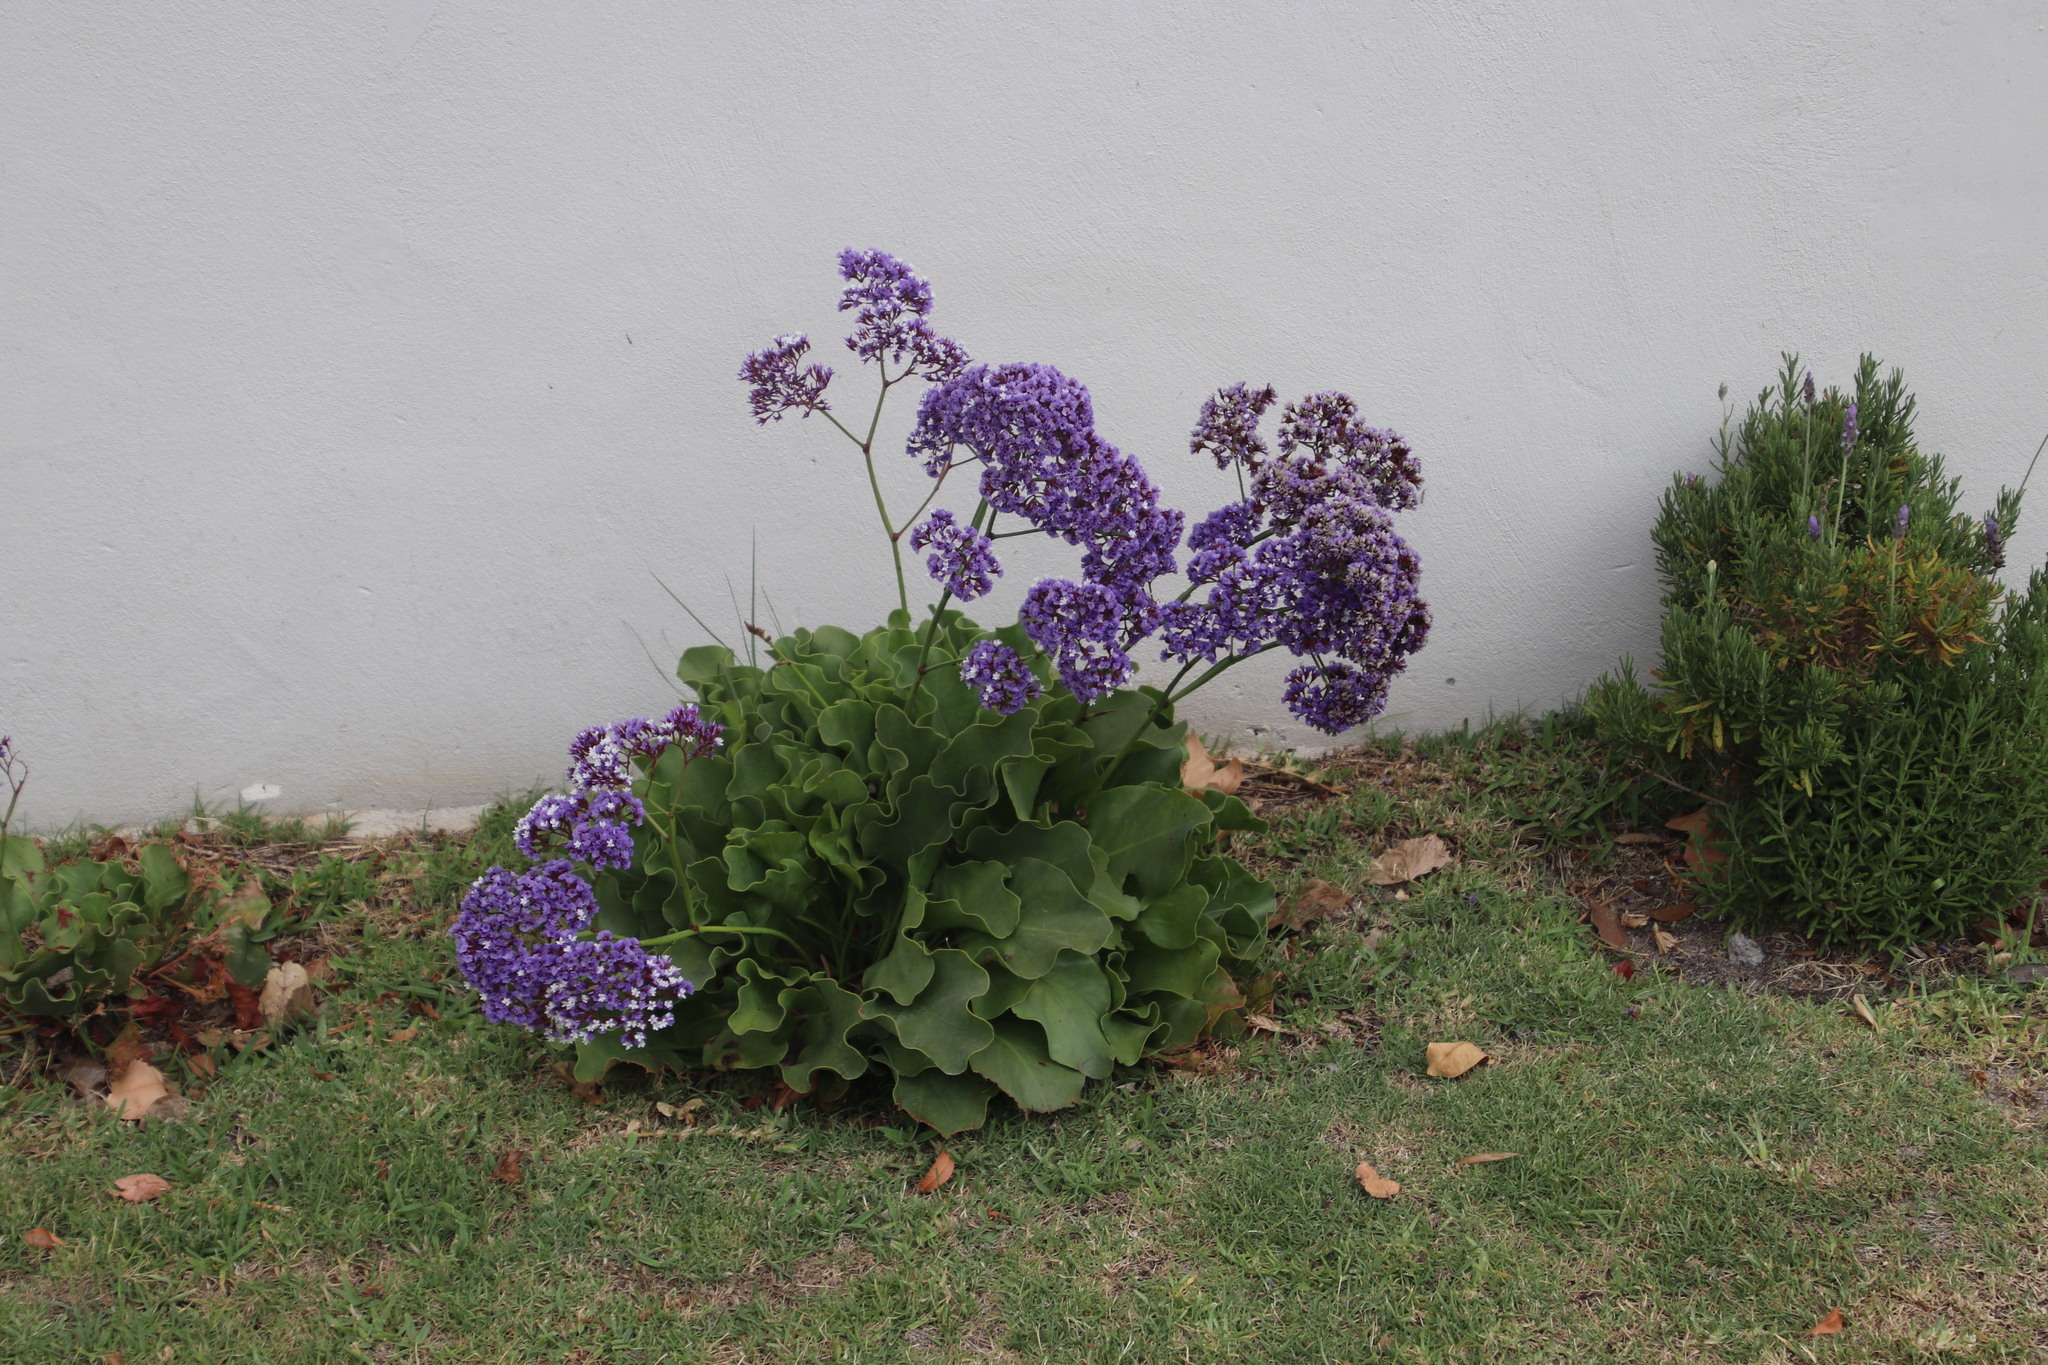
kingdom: Plantae
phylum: Tracheophyta
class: Magnoliopsida
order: Caryophyllales
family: Plumbaginaceae
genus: Limonium
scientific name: Limonium perezii
